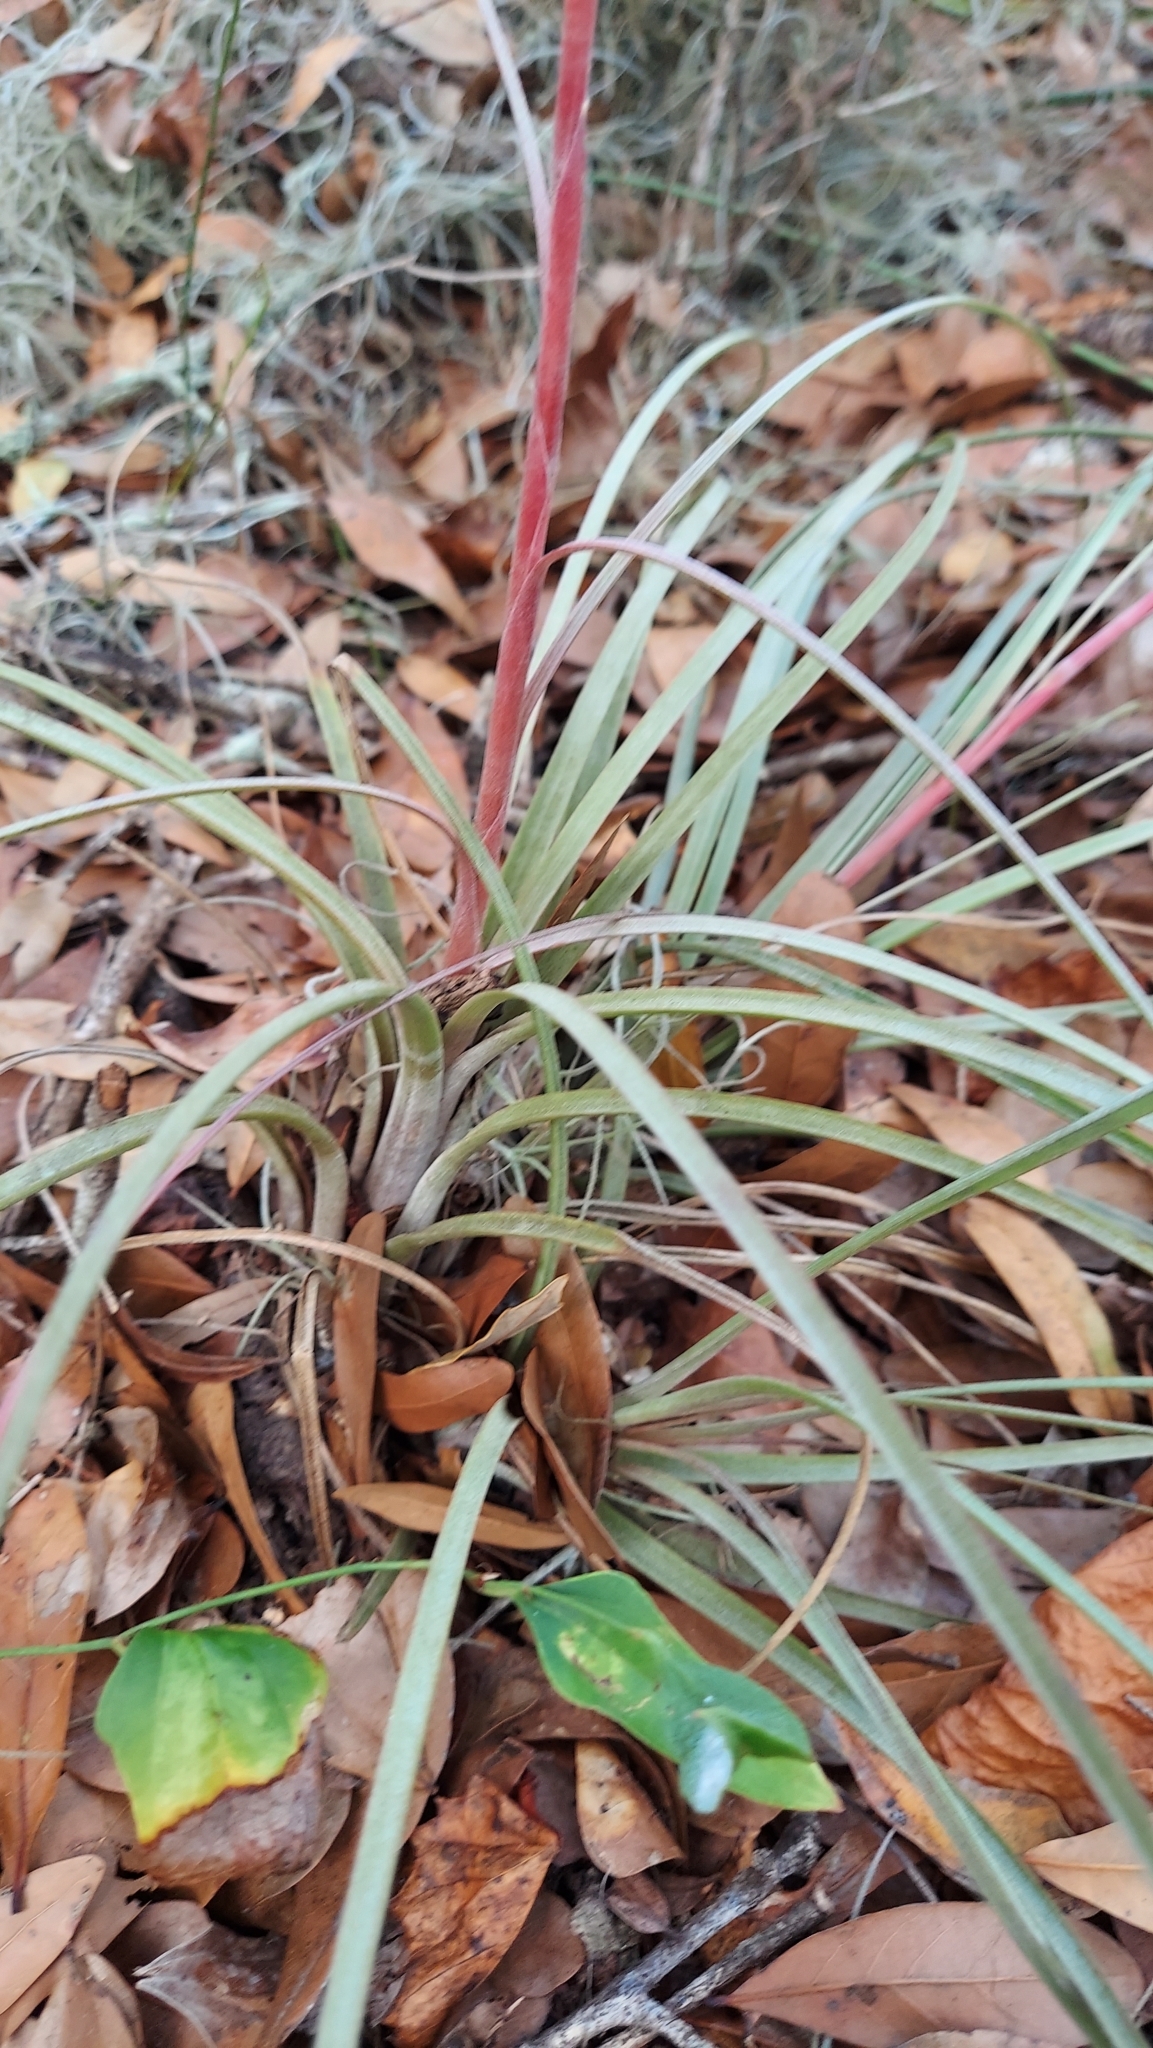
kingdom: Plantae
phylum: Tracheophyta
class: Liliopsida
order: Poales
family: Bromeliaceae
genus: Tillandsia
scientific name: Tillandsia floridana
